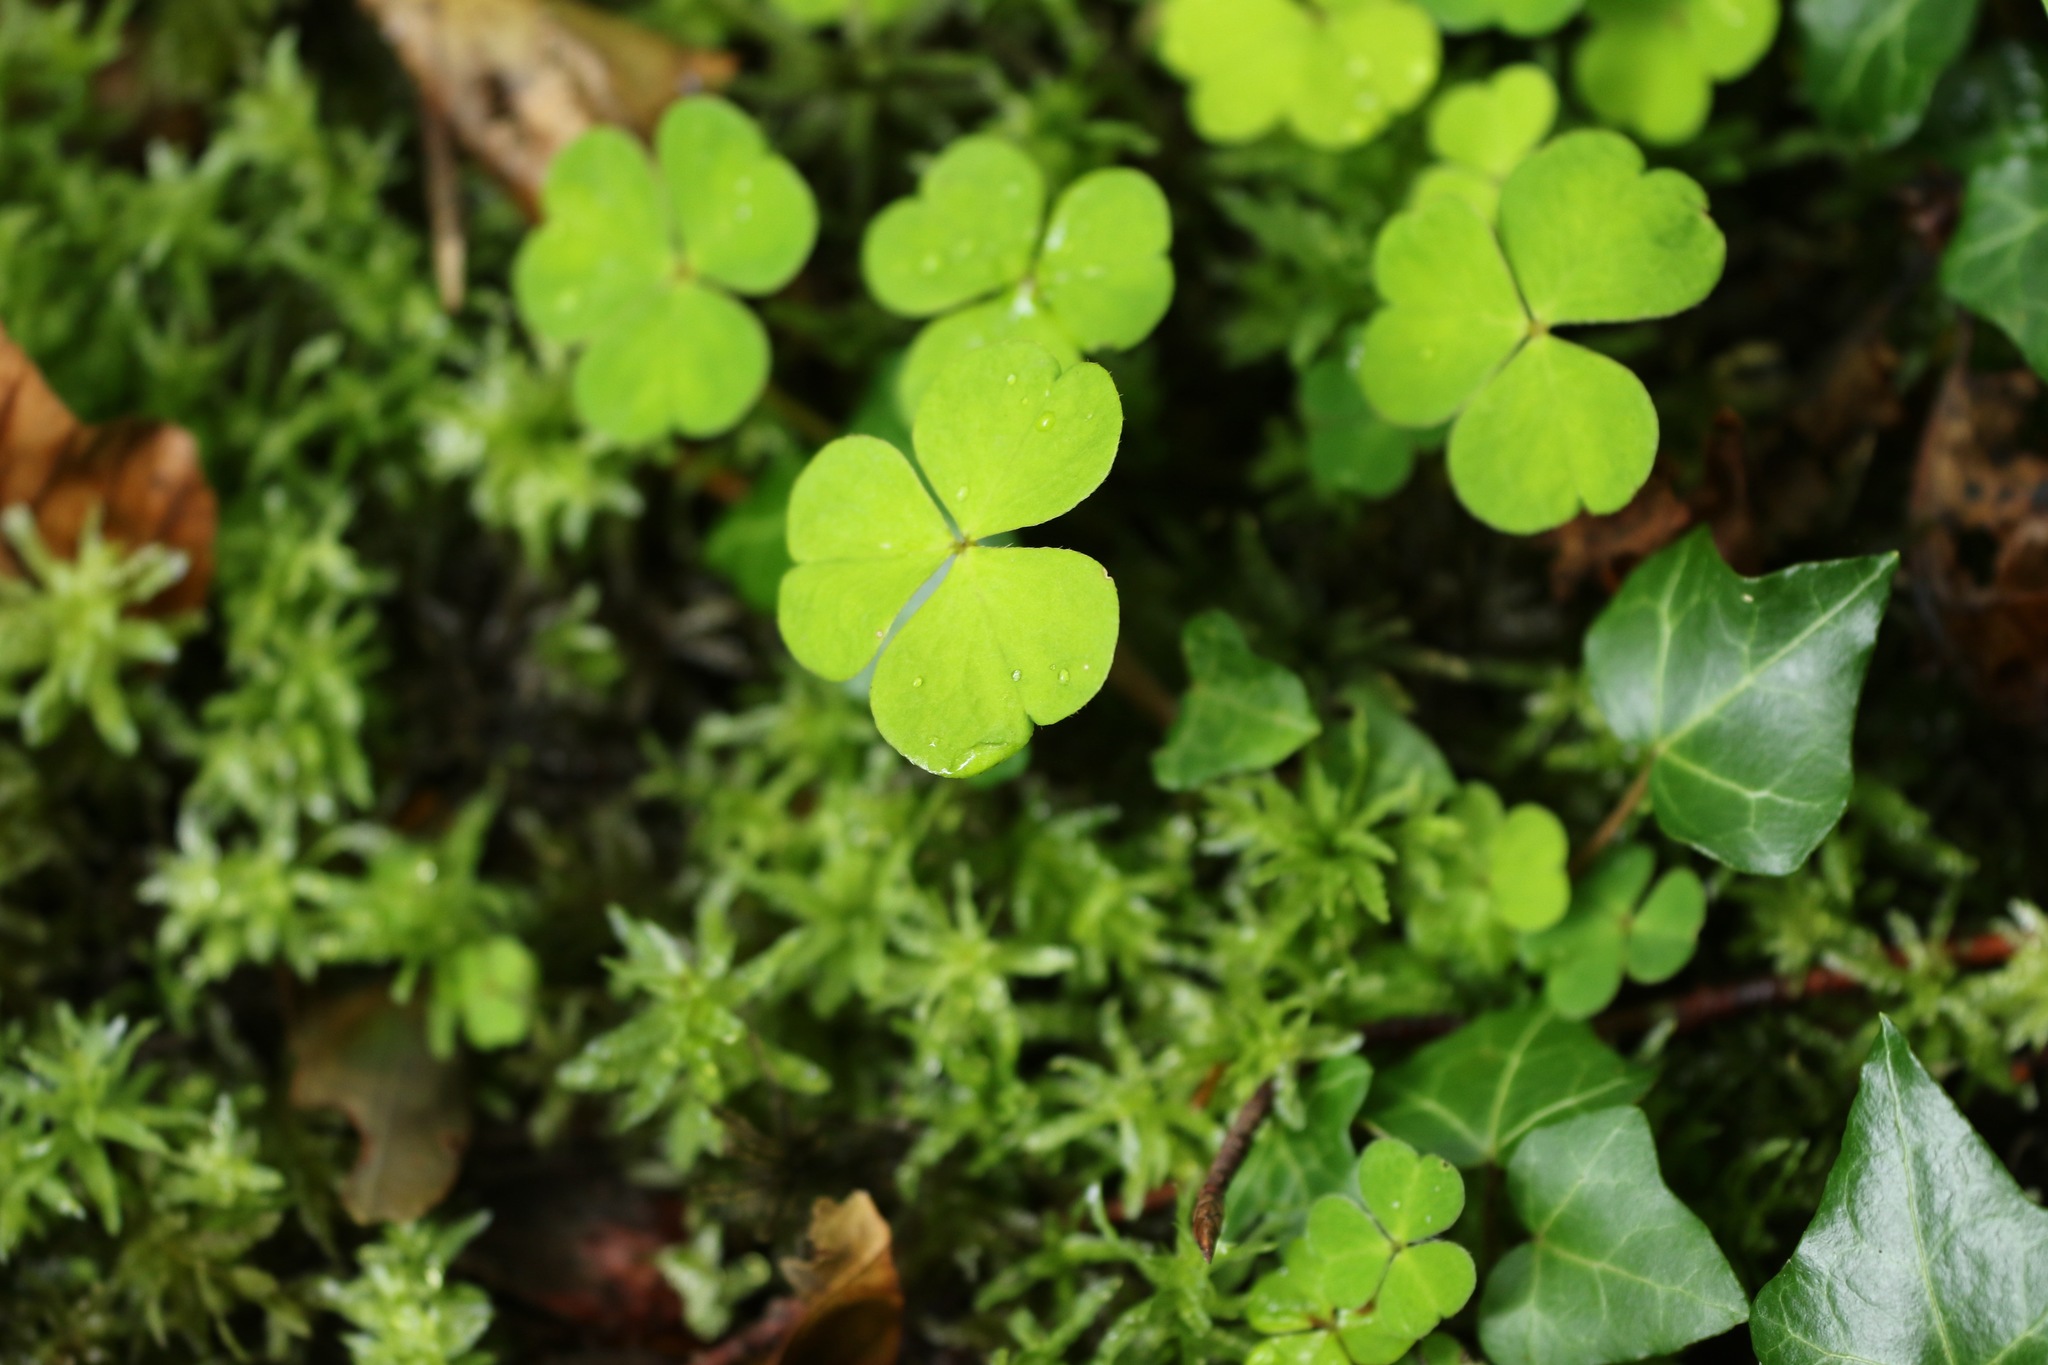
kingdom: Plantae
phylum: Tracheophyta
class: Magnoliopsida
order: Oxalidales
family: Oxalidaceae
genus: Oxalis
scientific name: Oxalis acetosella
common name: Wood-sorrel
